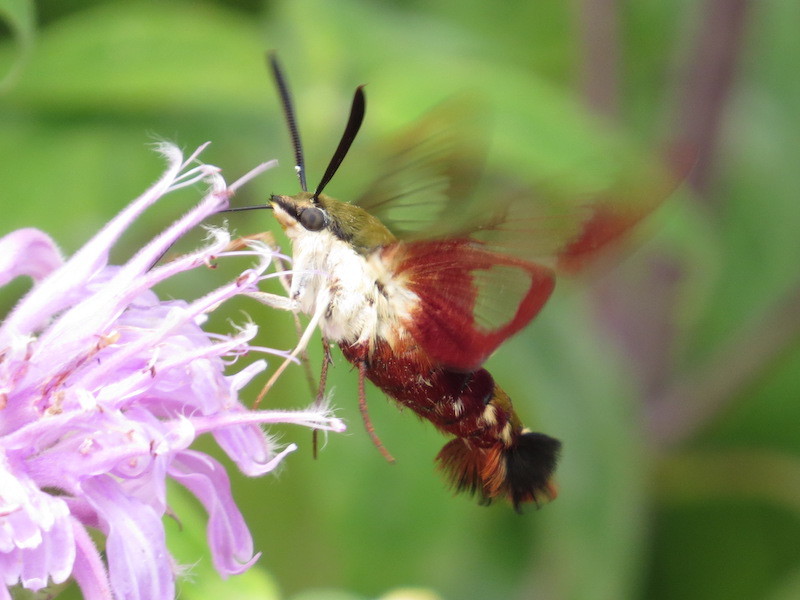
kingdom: Animalia
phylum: Arthropoda
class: Insecta
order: Lepidoptera
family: Sphingidae
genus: Hemaris
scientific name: Hemaris thysbe
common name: Common clear-wing
